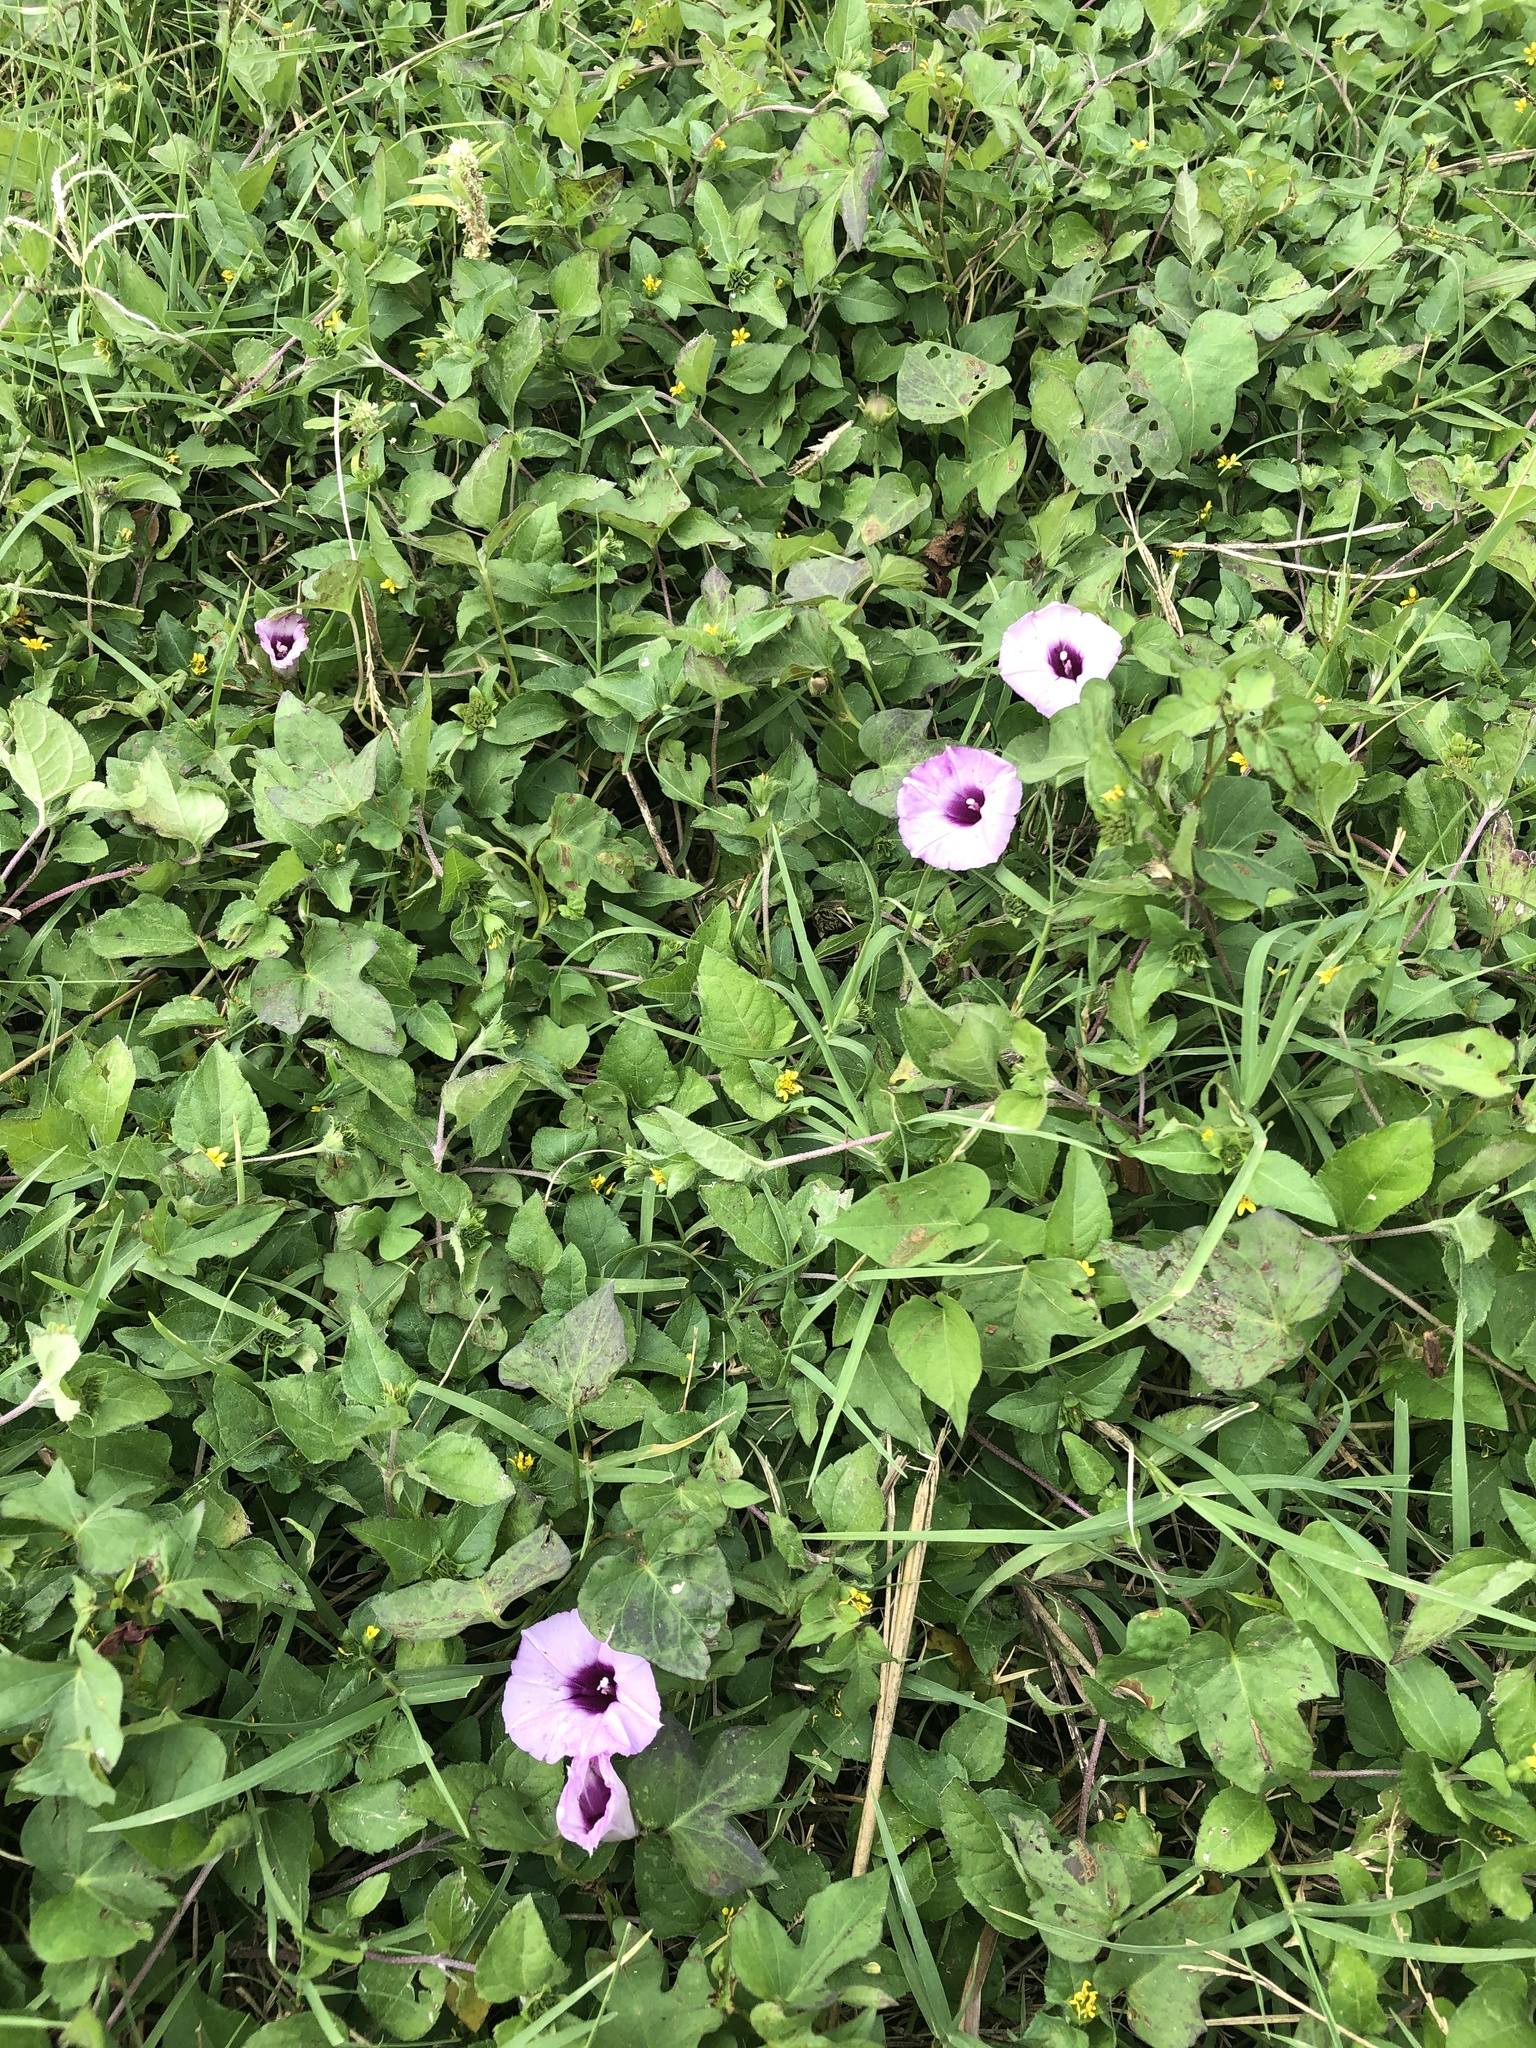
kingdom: Plantae
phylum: Tracheophyta
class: Magnoliopsida
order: Solanales
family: Convolvulaceae
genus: Ipomoea
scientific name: Ipomoea cordatotriloba
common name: Cotton morning glory
